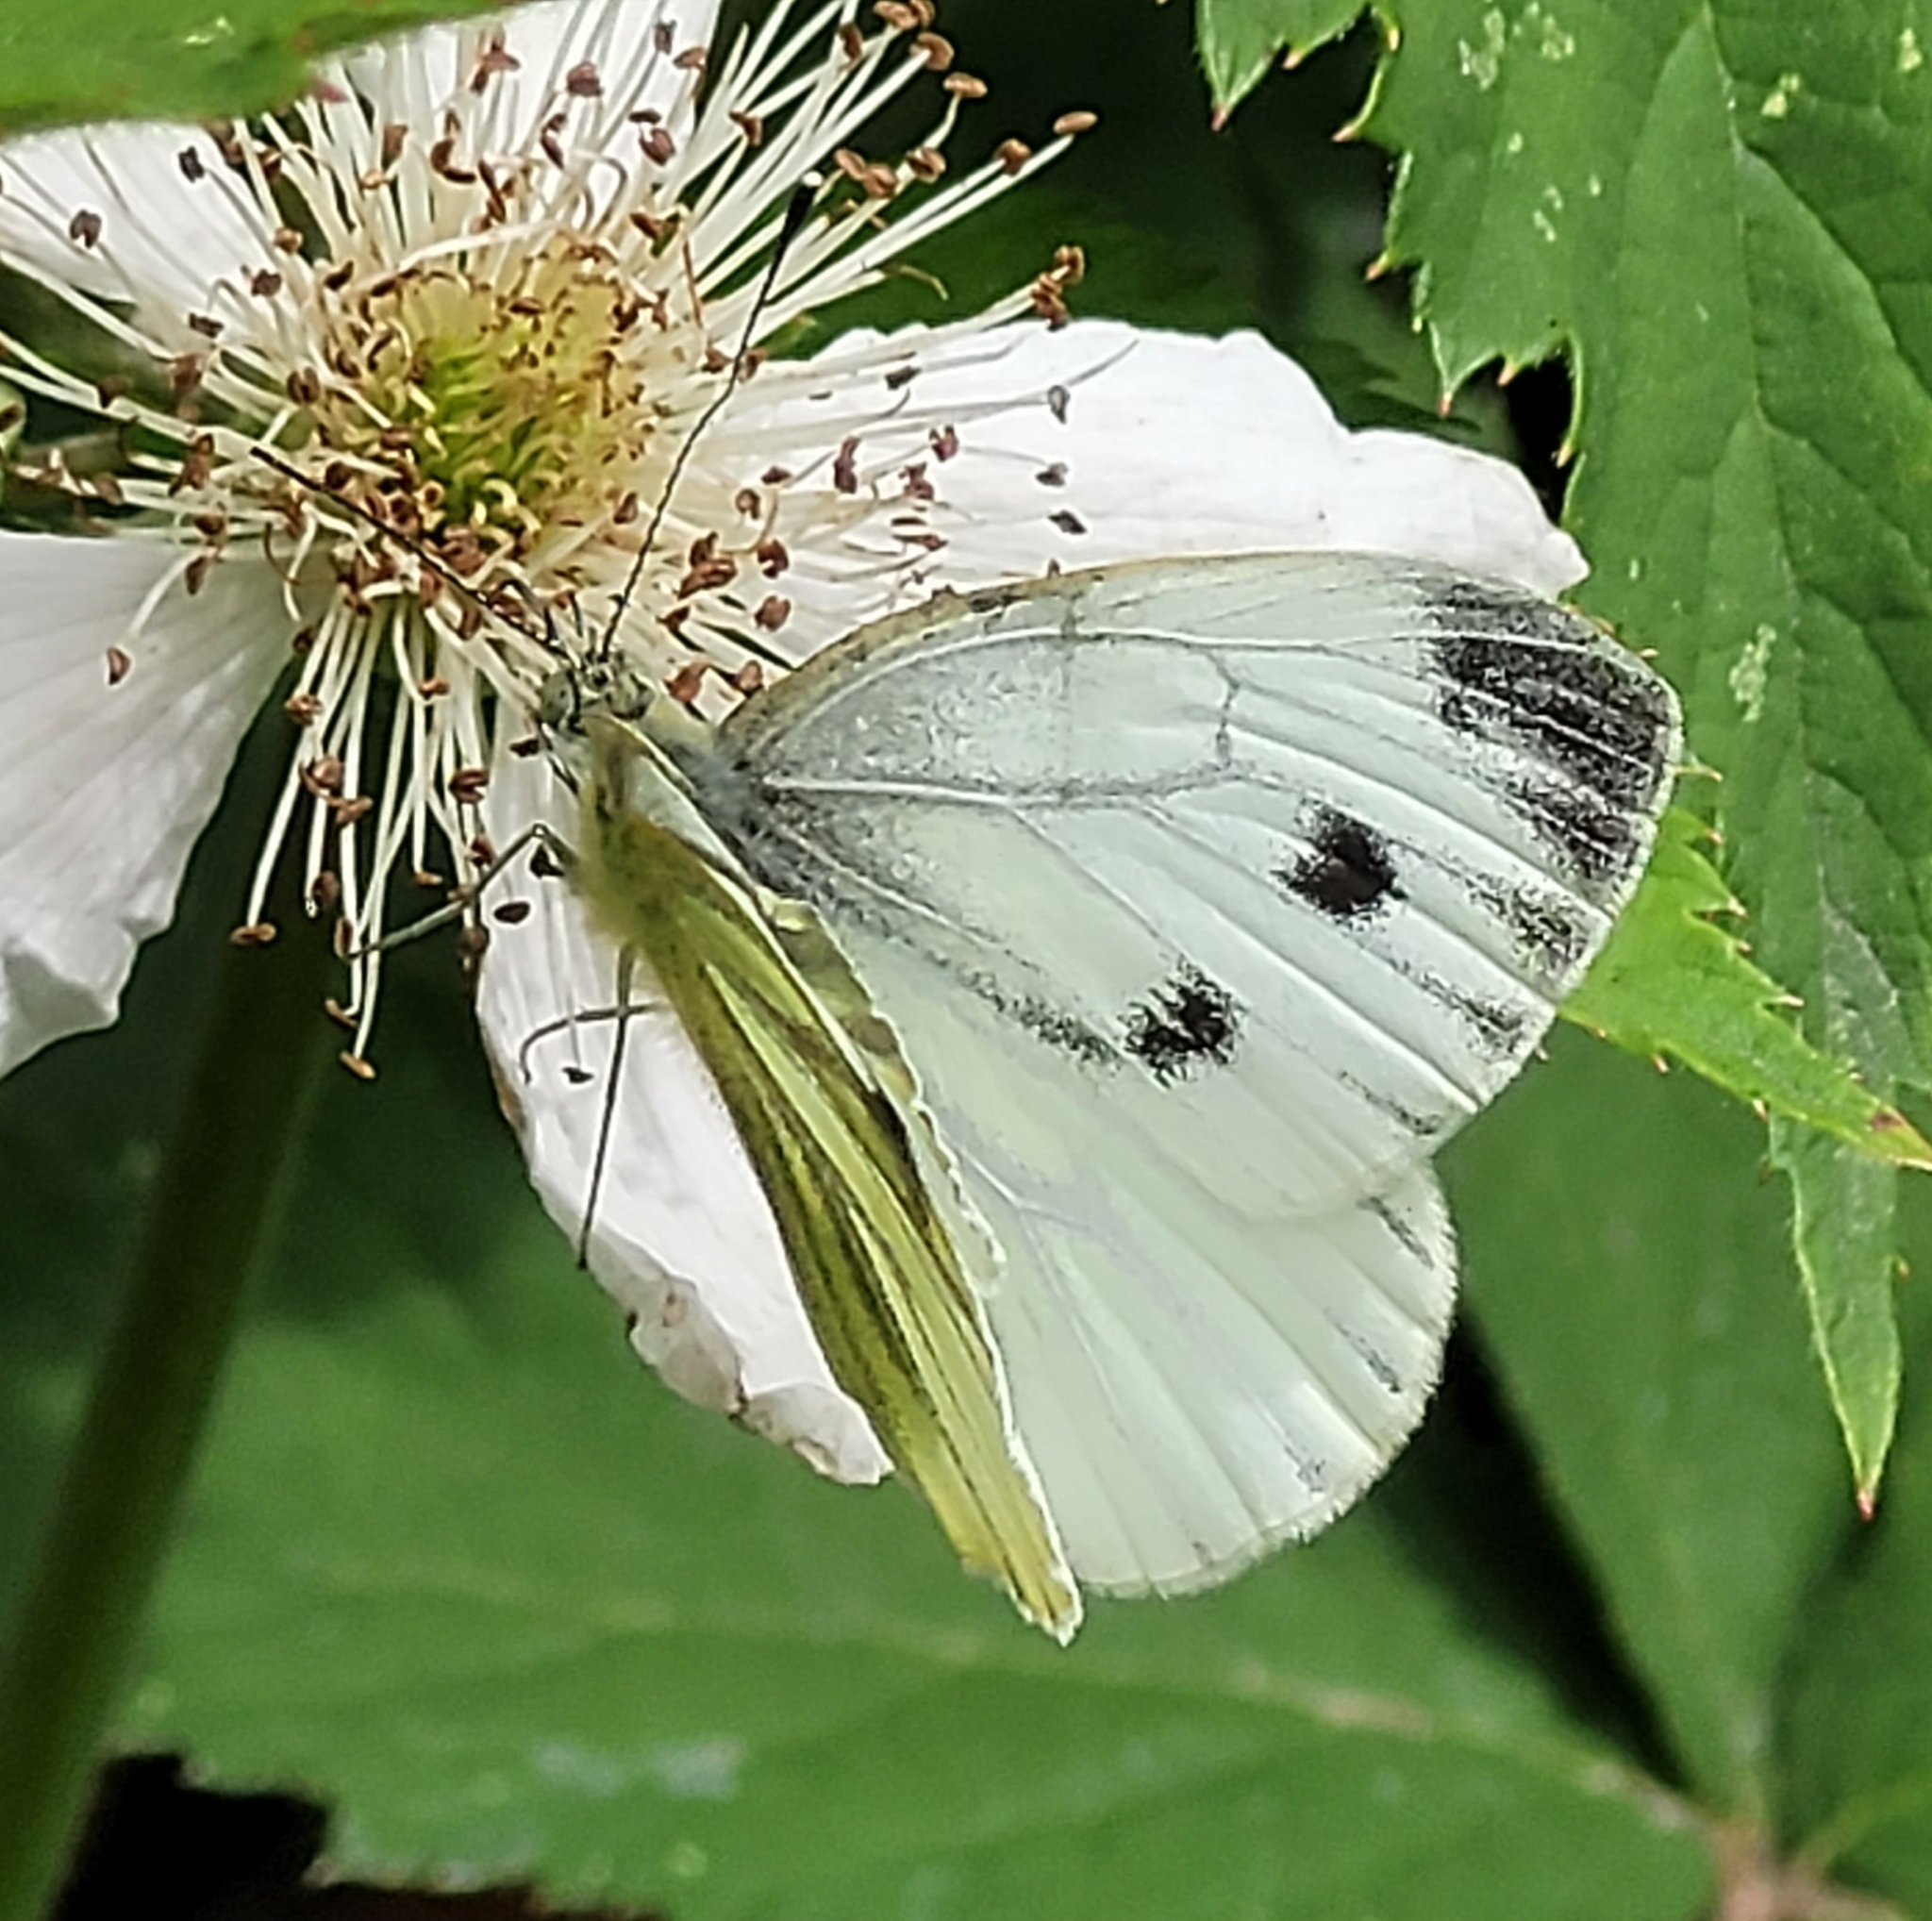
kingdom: Animalia
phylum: Arthropoda
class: Insecta
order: Lepidoptera
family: Pieridae
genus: Pieris
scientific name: Pieris napi
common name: Green-veined white
